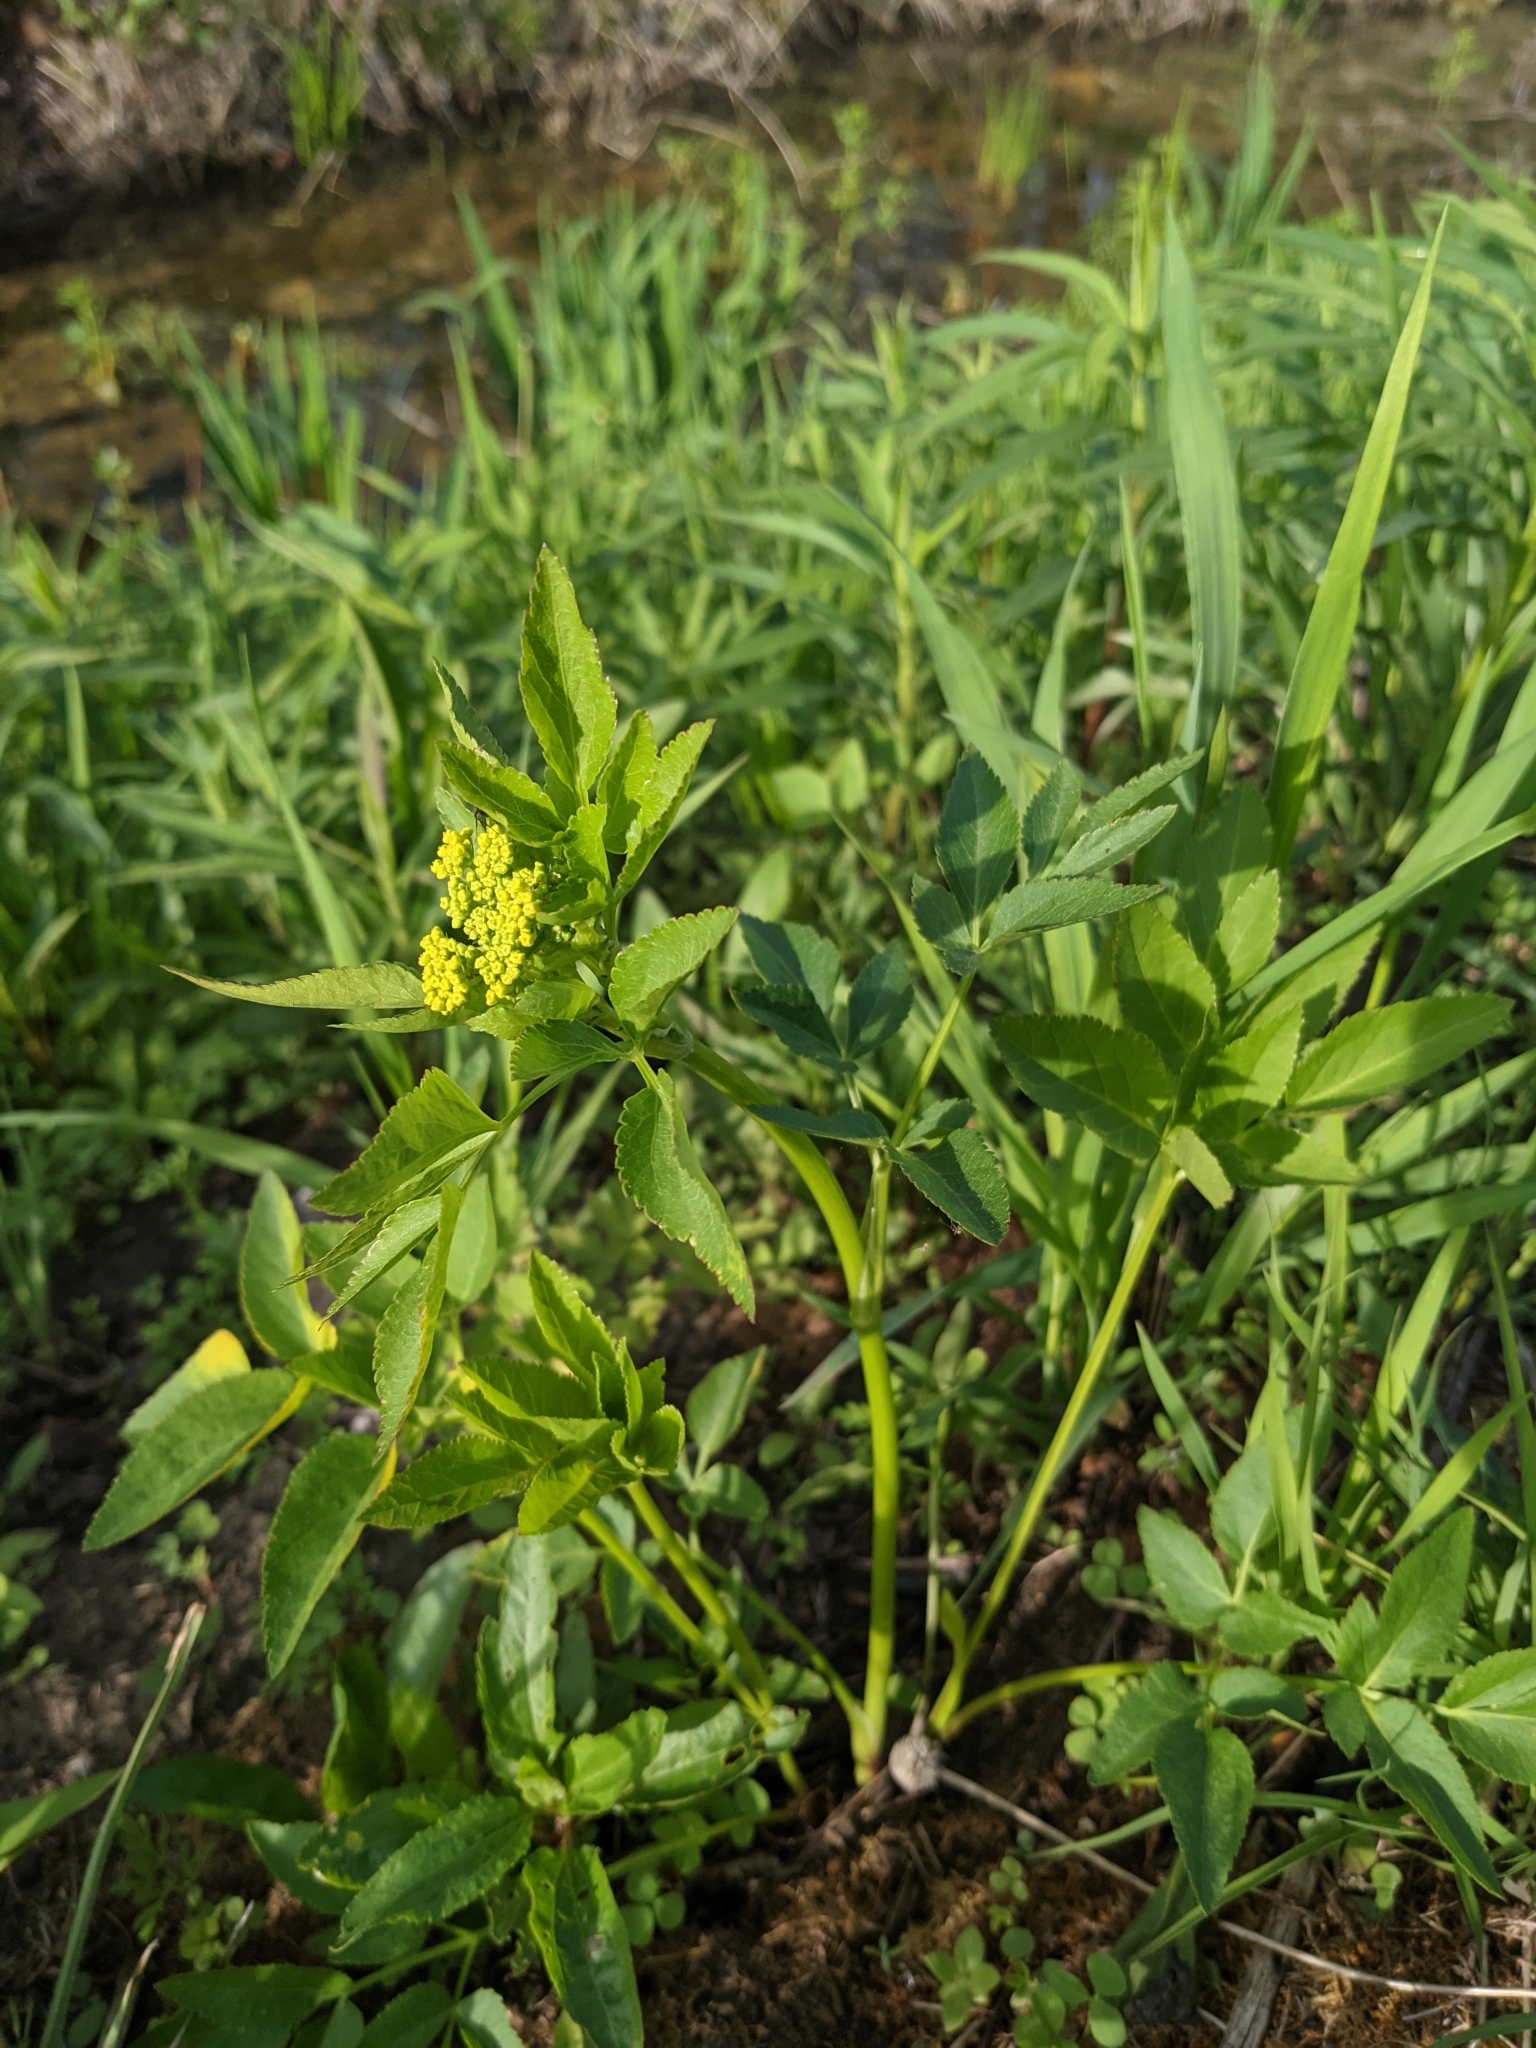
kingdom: Plantae
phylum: Tracheophyta
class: Magnoliopsida
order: Apiales
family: Apiaceae
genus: Zizia
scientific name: Zizia aurea
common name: Golden alexanders
